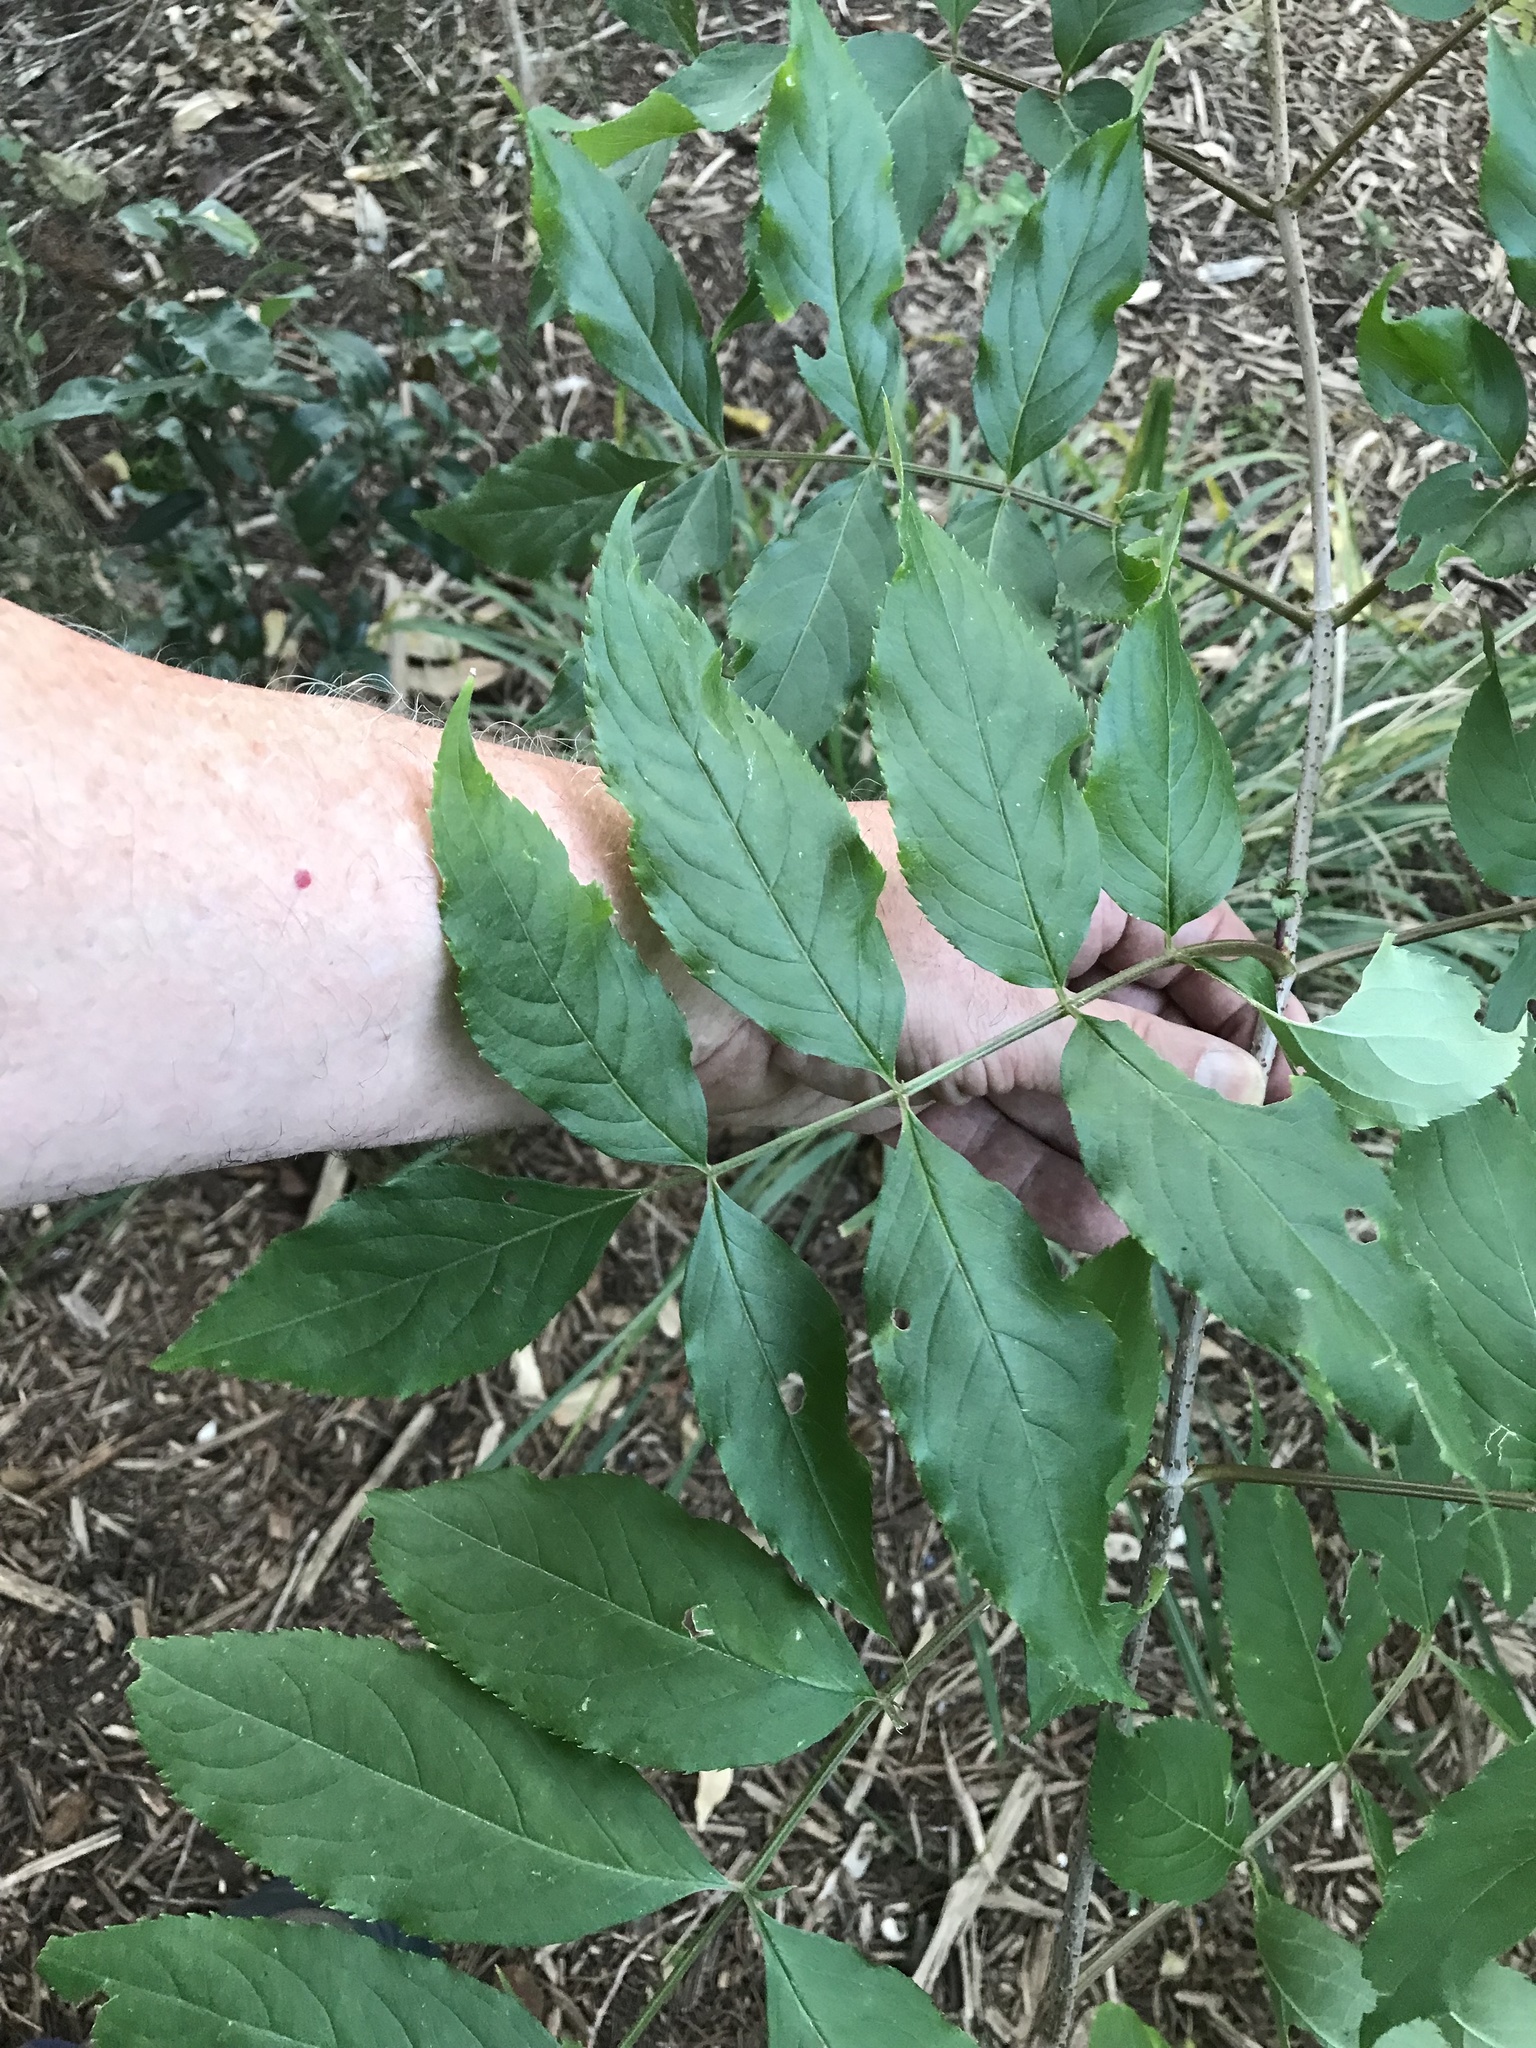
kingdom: Plantae
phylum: Tracheophyta
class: Magnoliopsida
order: Dipsacales
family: Viburnaceae
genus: Sambucus
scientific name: Sambucus canadensis
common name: American elder
